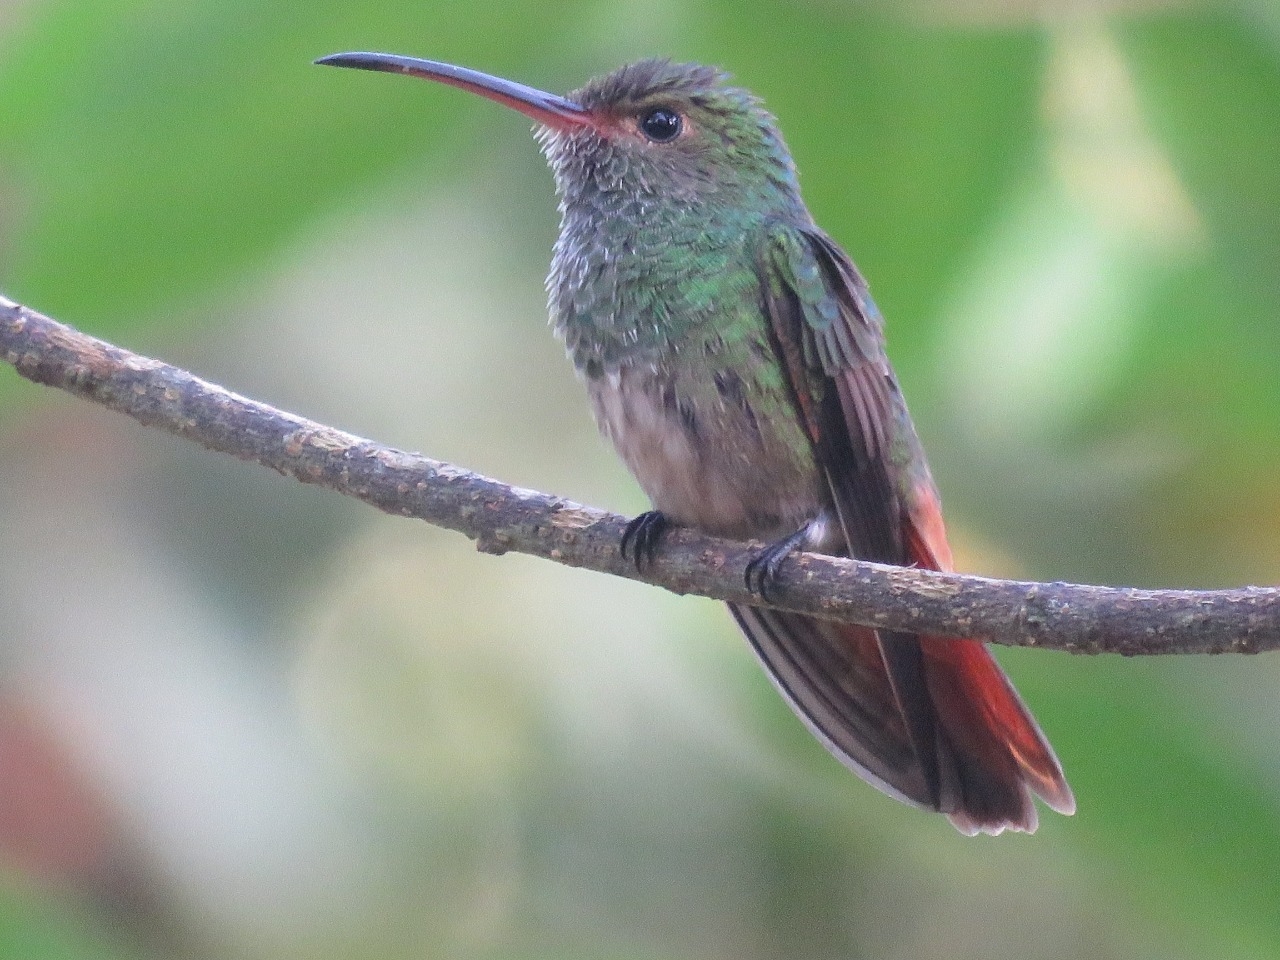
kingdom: Animalia
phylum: Chordata
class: Aves
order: Apodiformes
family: Trochilidae
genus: Amazilia
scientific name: Amazilia tzacatl
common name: Rufous-tailed hummingbird
